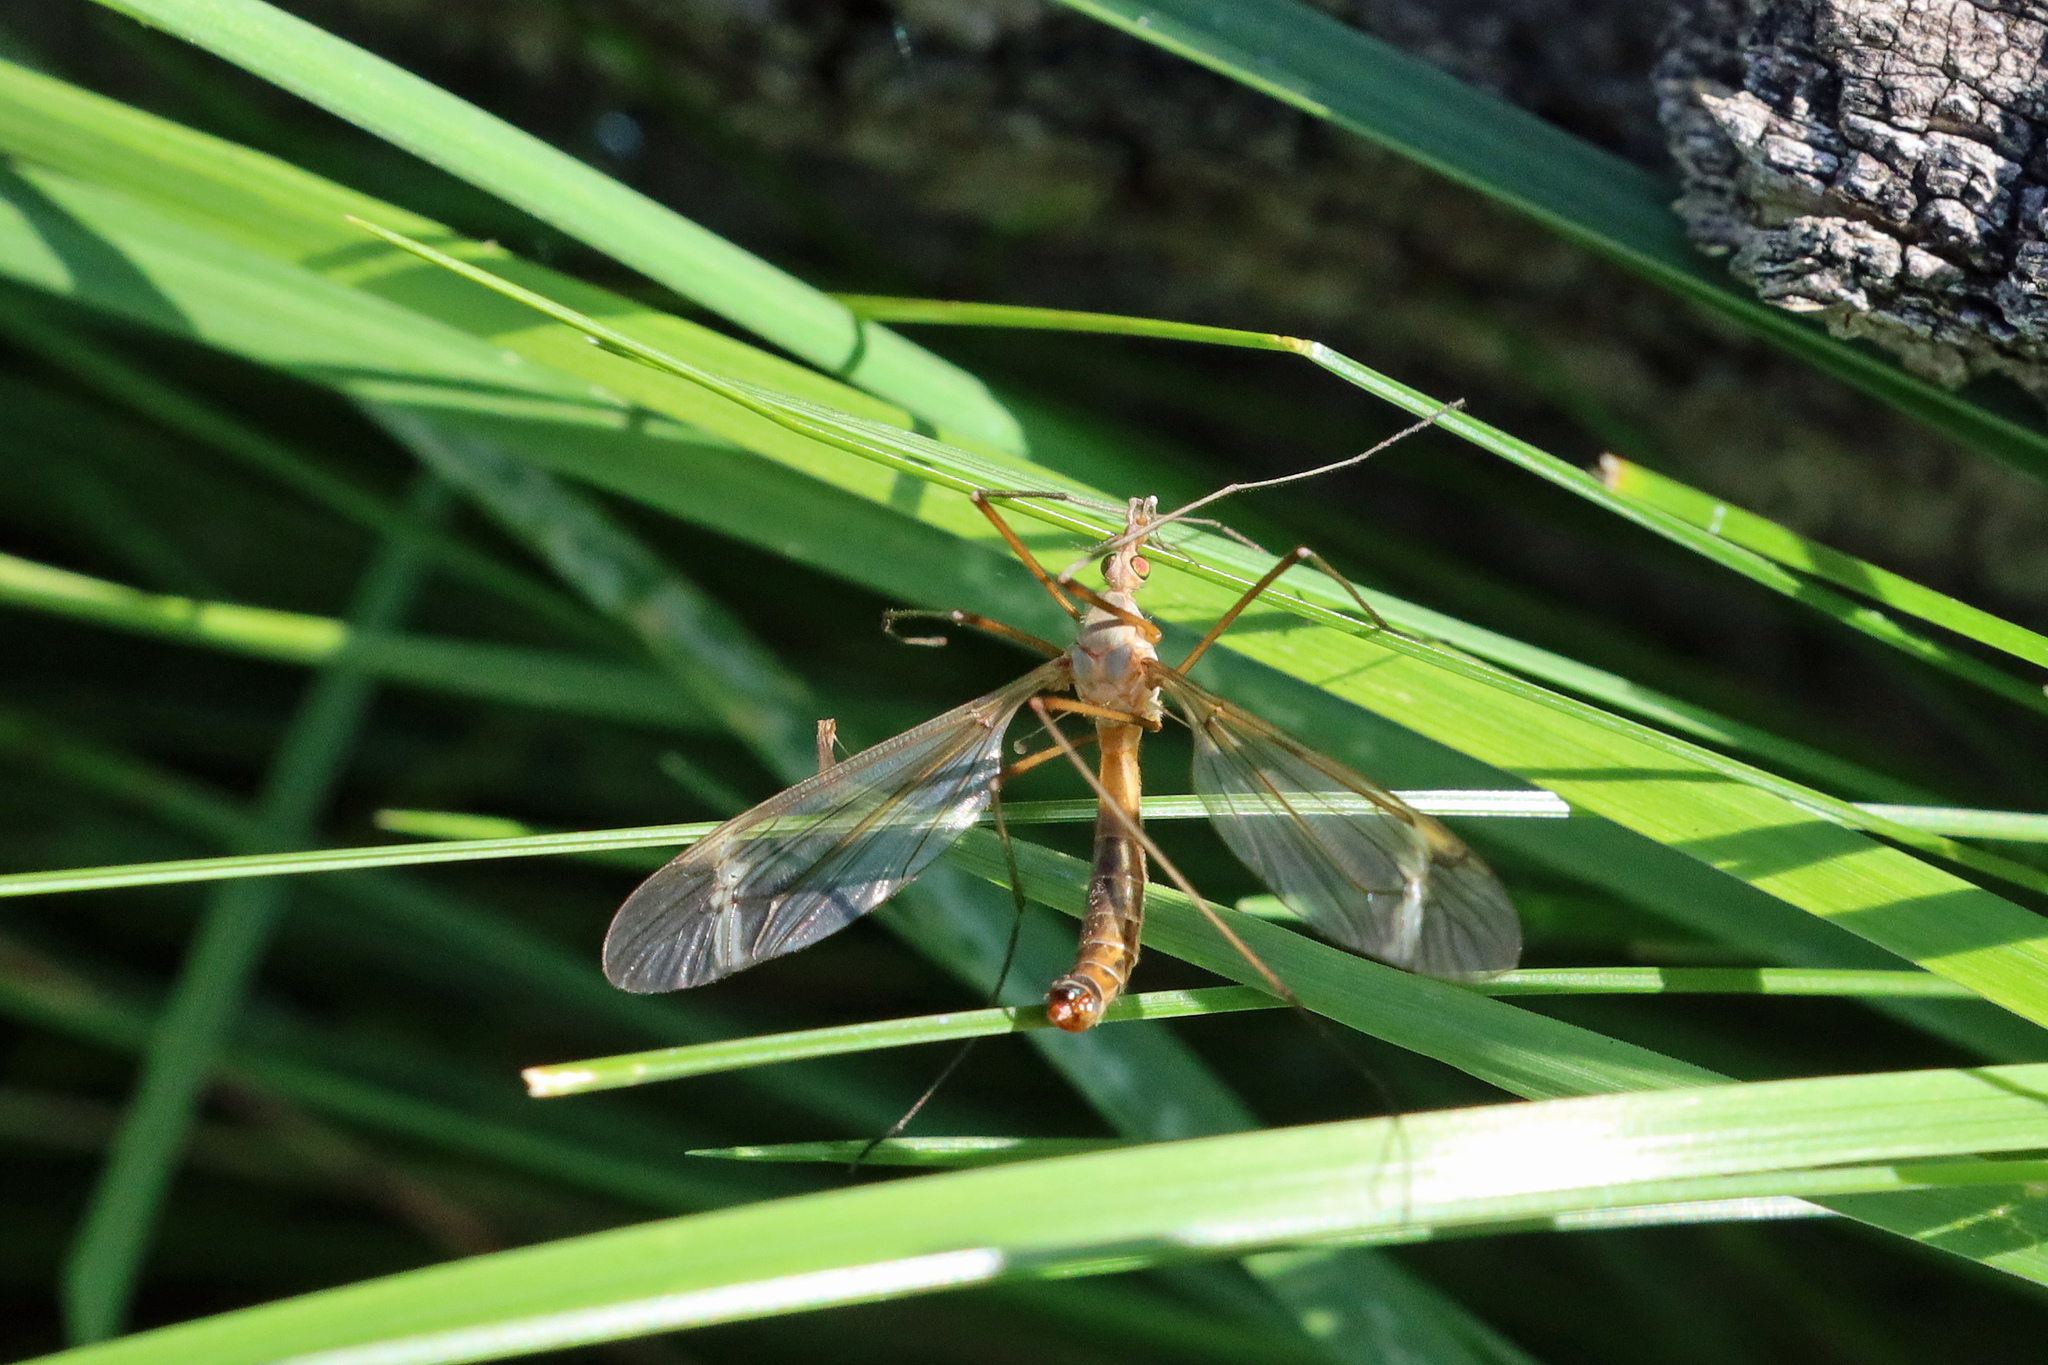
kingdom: Animalia
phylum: Arthropoda
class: Insecta
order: Diptera
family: Tipulidae
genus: Tipula
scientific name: Tipula fascipennis
